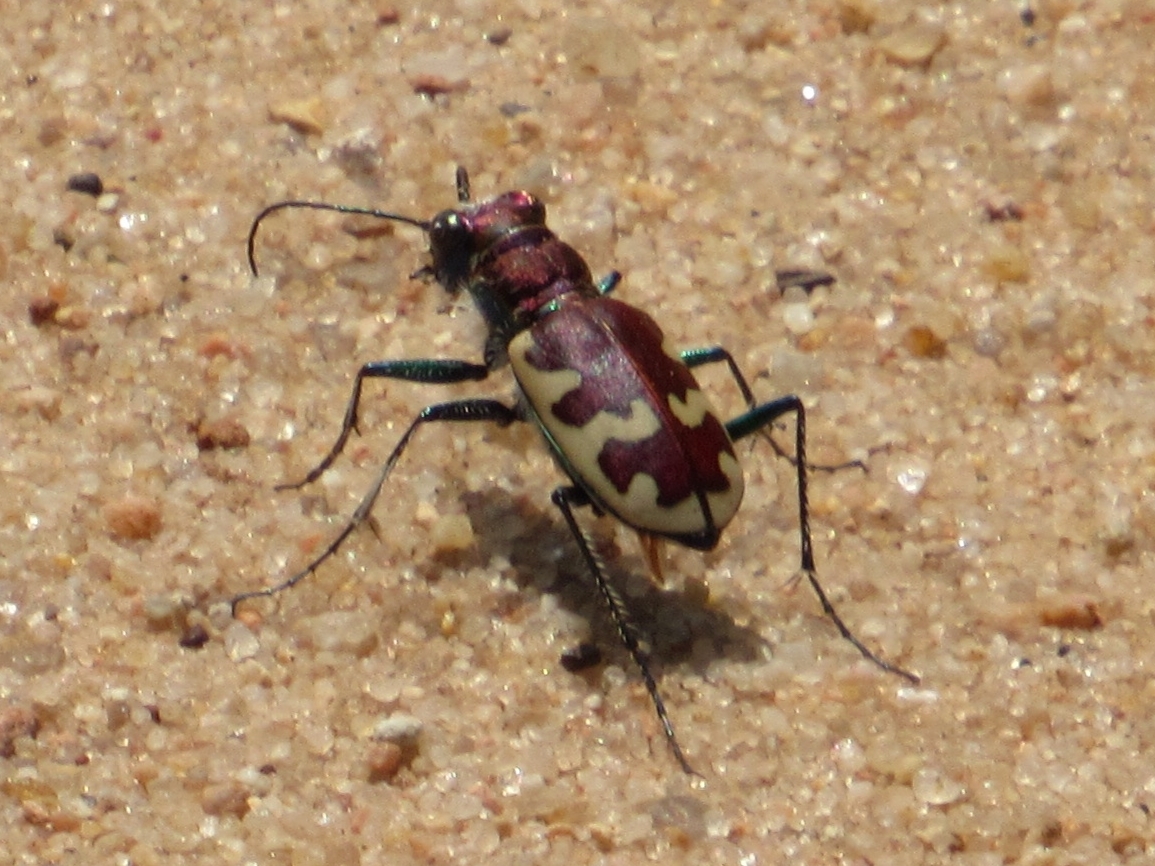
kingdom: Animalia
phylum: Arthropoda
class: Insecta
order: Coleoptera
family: Carabidae
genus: Cicindela
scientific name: Cicindela formosa
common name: Big sand tiger beetle
